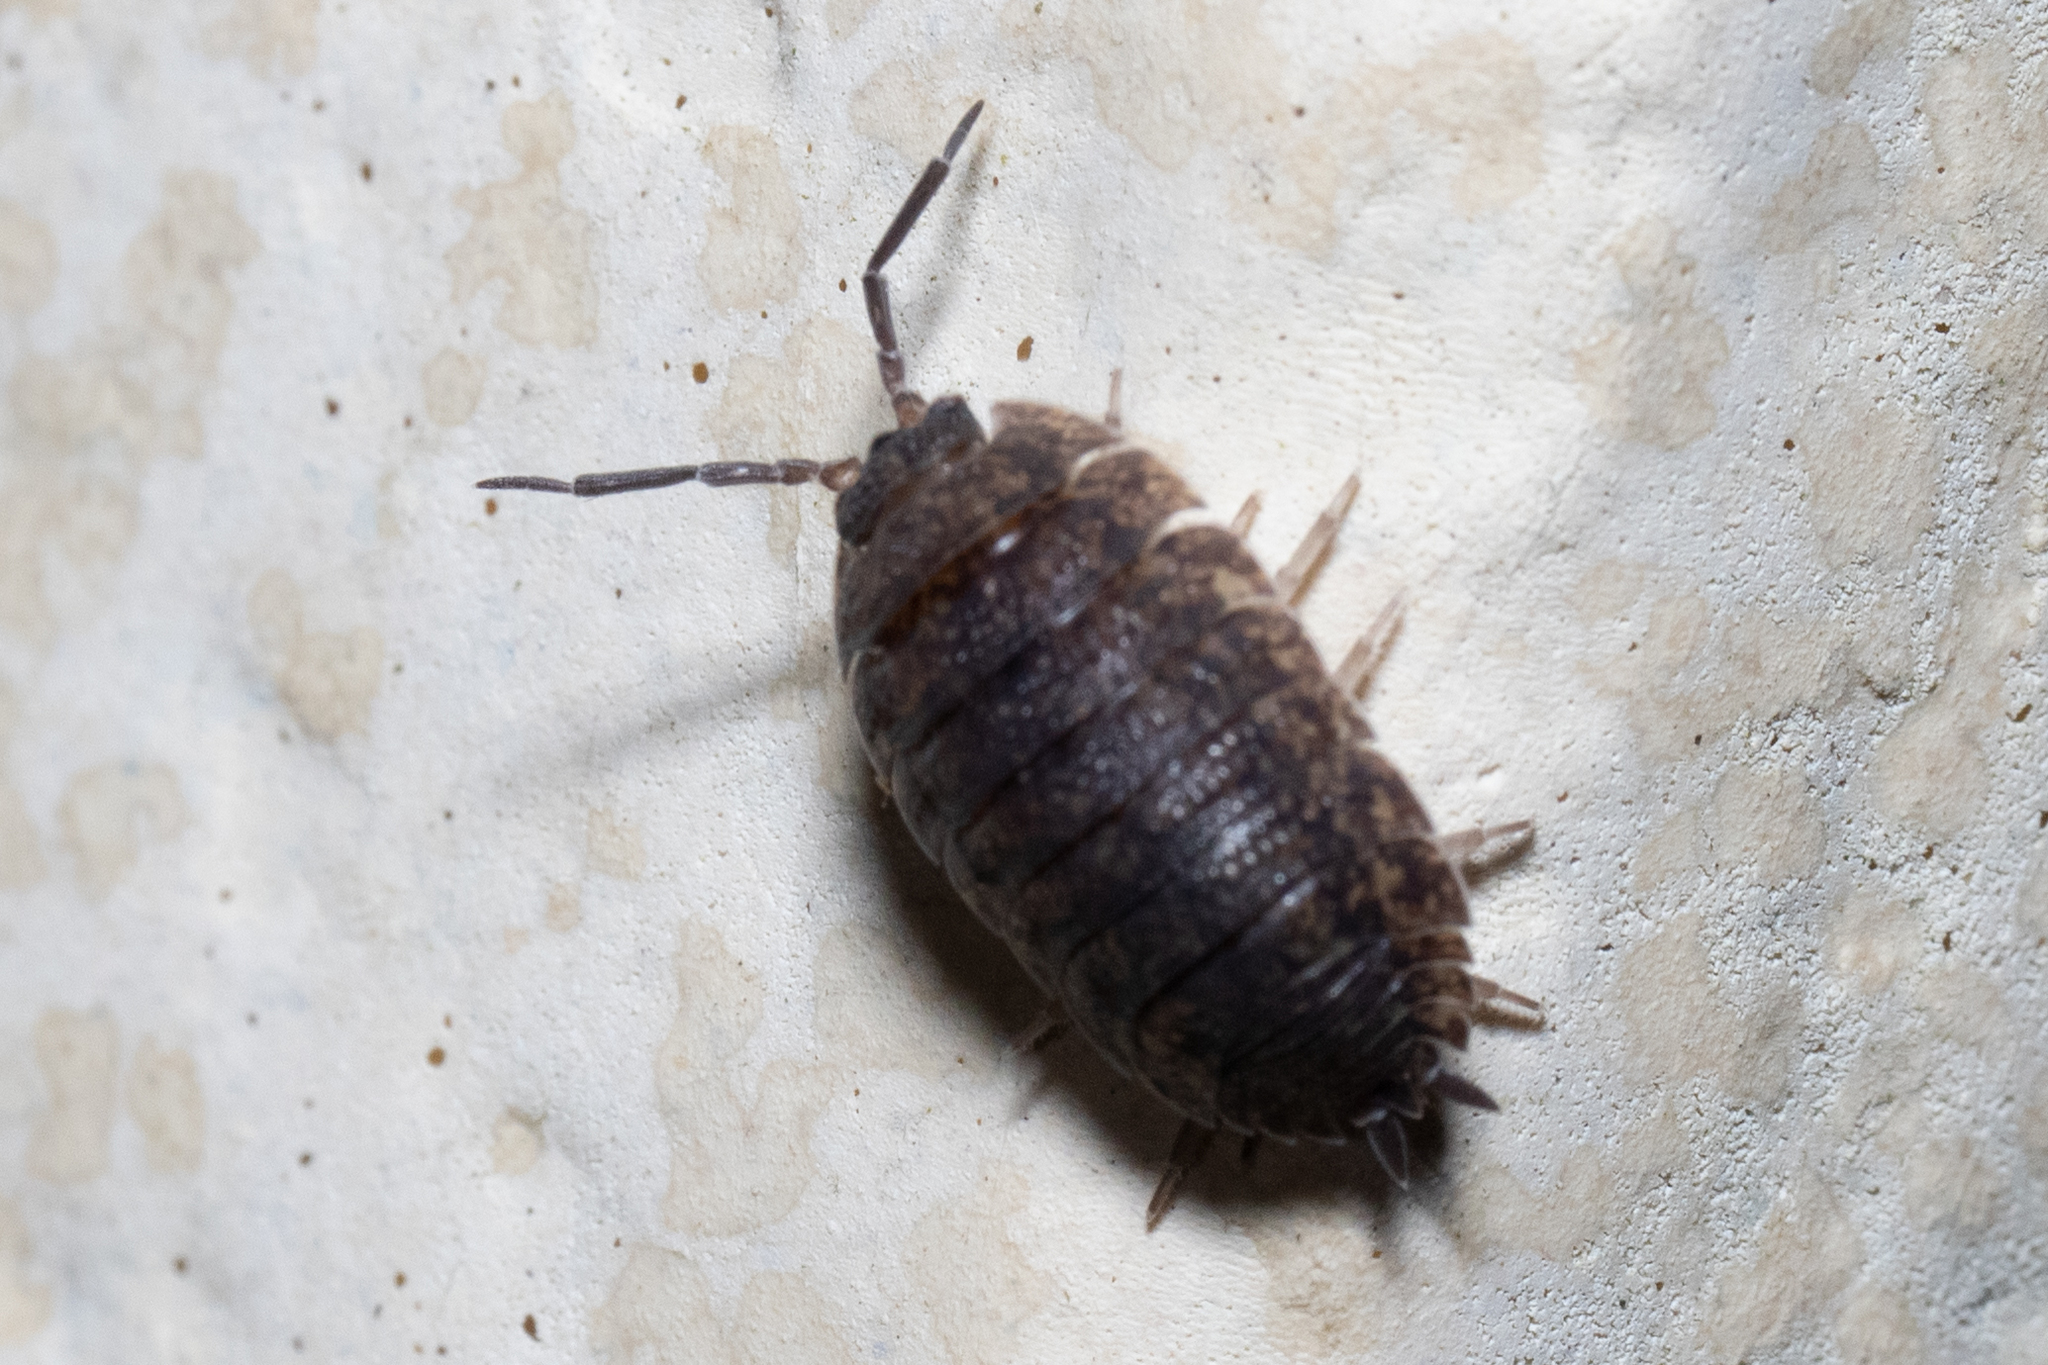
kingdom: Animalia
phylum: Arthropoda
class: Malacostraca
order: Isopoda
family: Porcellionidae
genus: Porcellio
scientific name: Porcellio scaber
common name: Common rough woodlouse
